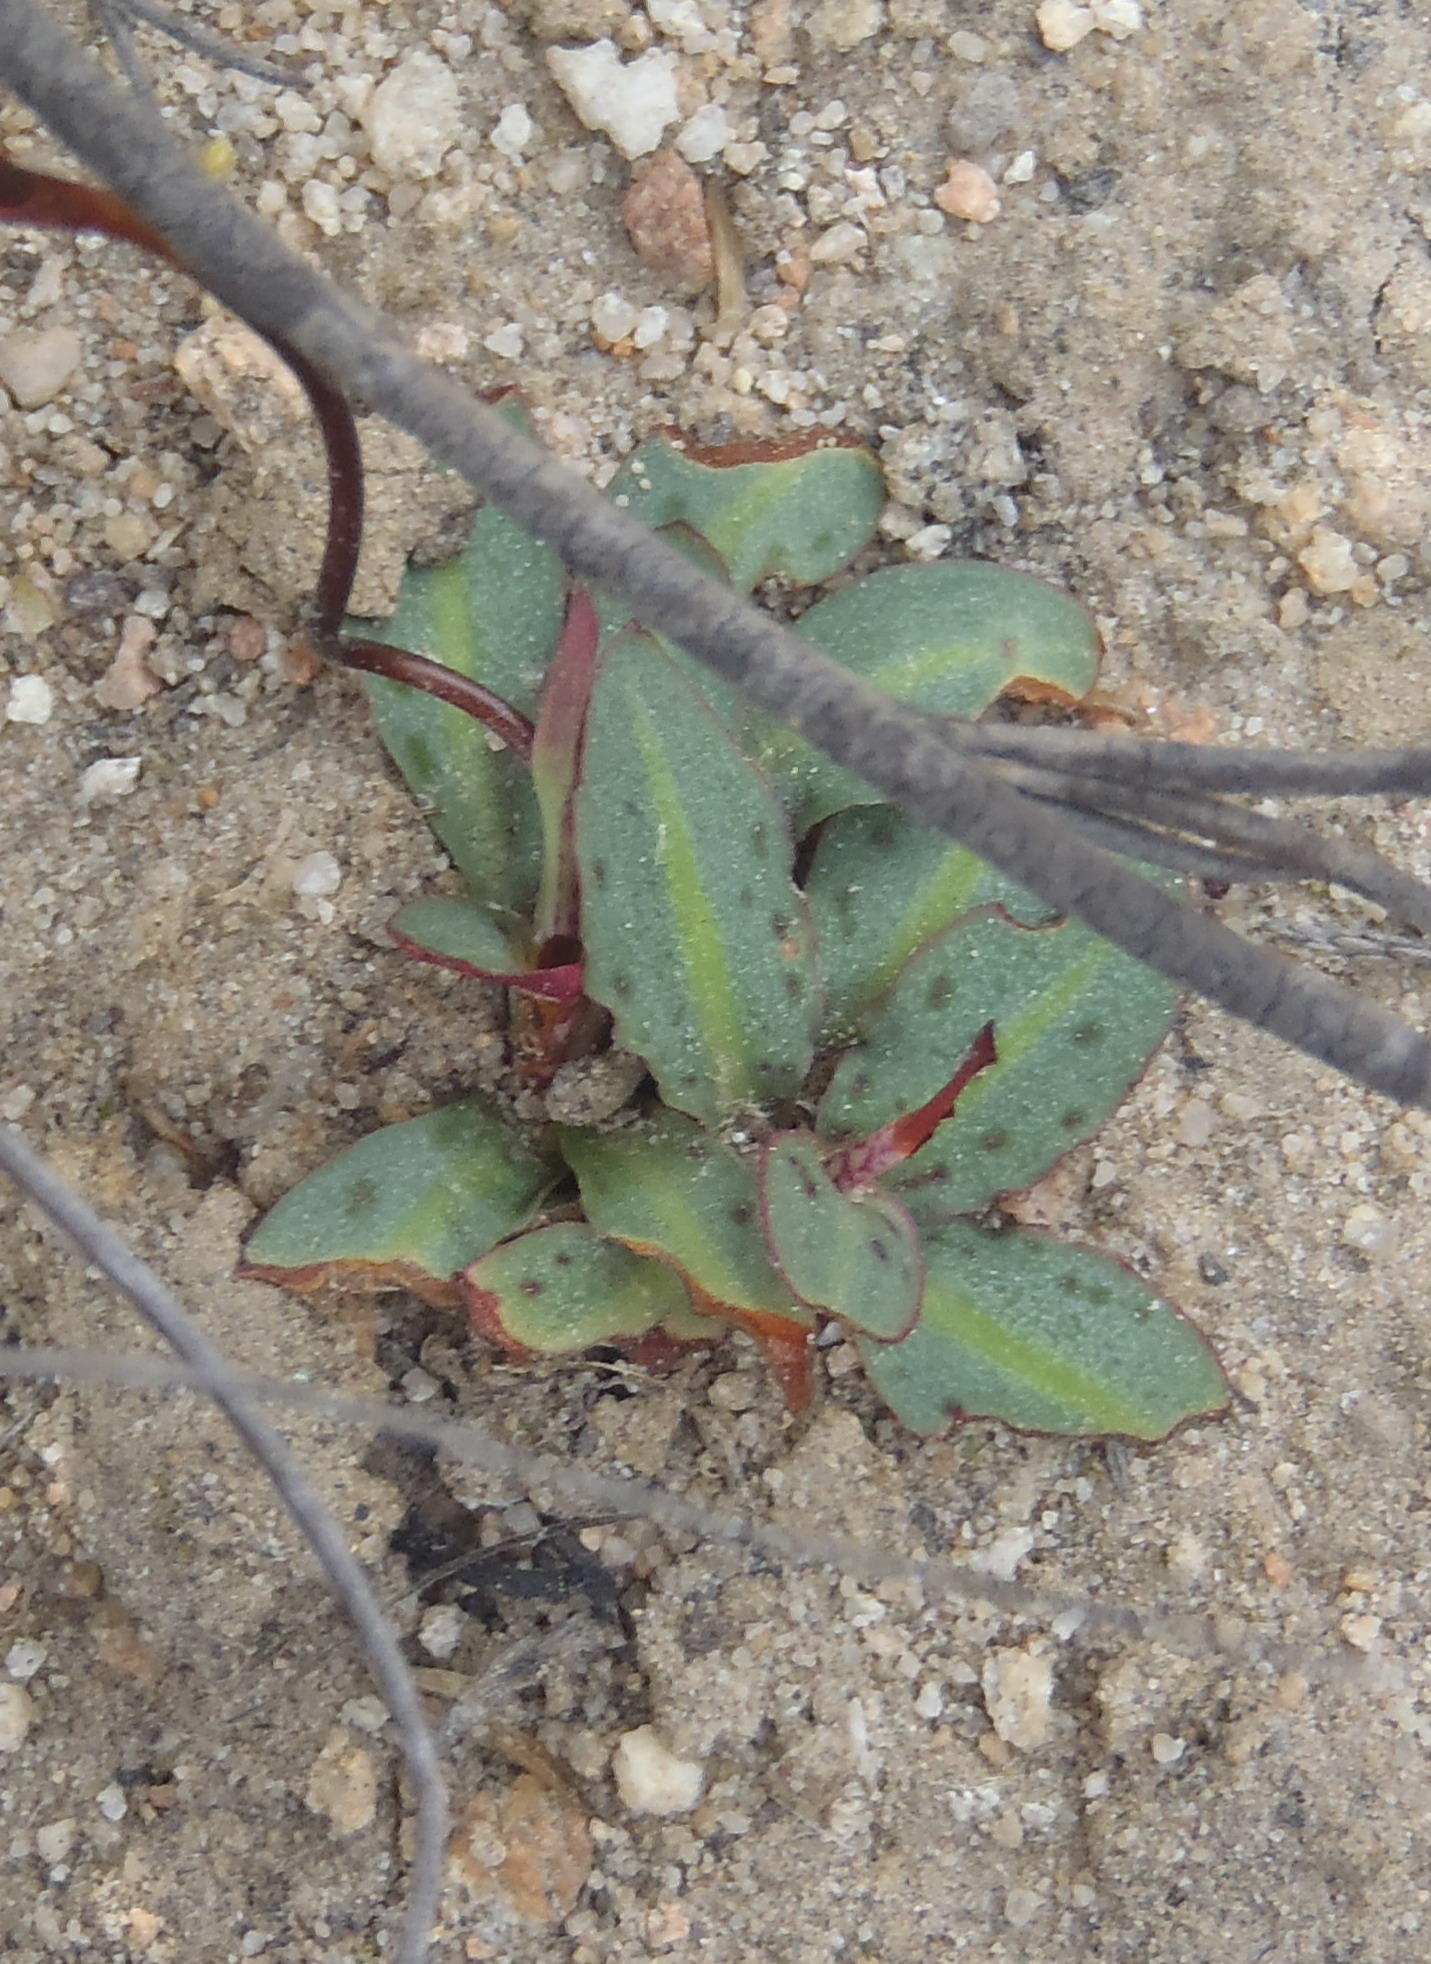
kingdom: Plantae
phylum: Tracheophyta
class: Liliopsida
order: Asparagales
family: Orchidaceae
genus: Disa
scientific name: Disa bifida
